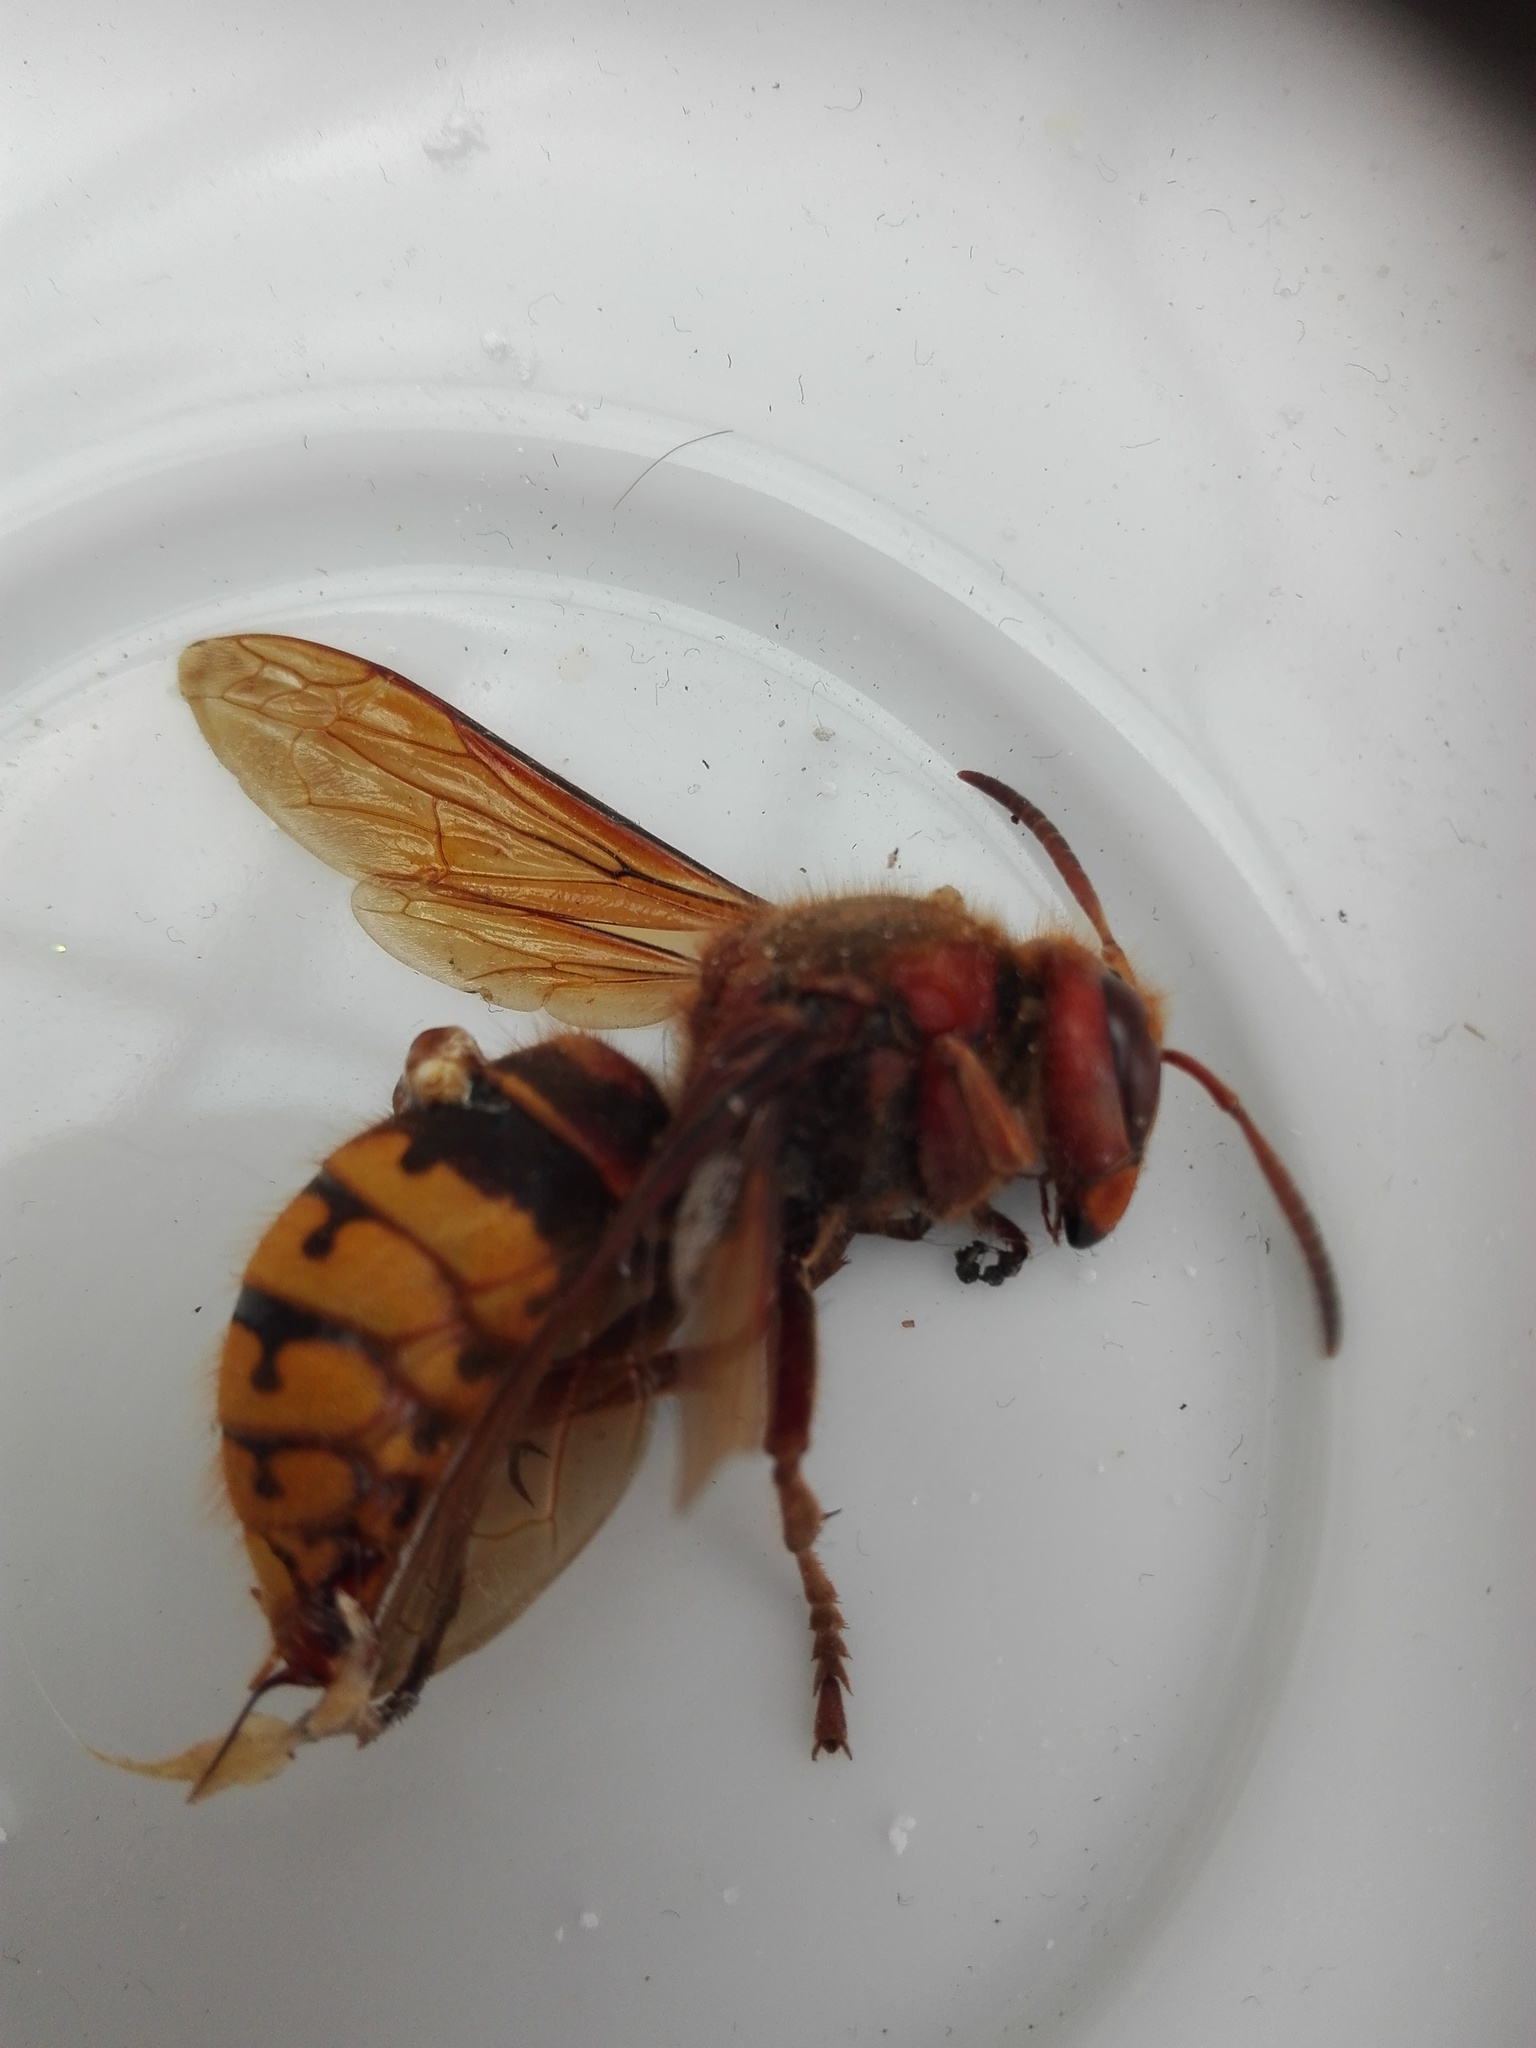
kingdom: Animalia
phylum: Arthropoda
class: Insecta
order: Hymenoptera
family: Vespidae
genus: Vespa
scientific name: Vespa crabro
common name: Hornet
